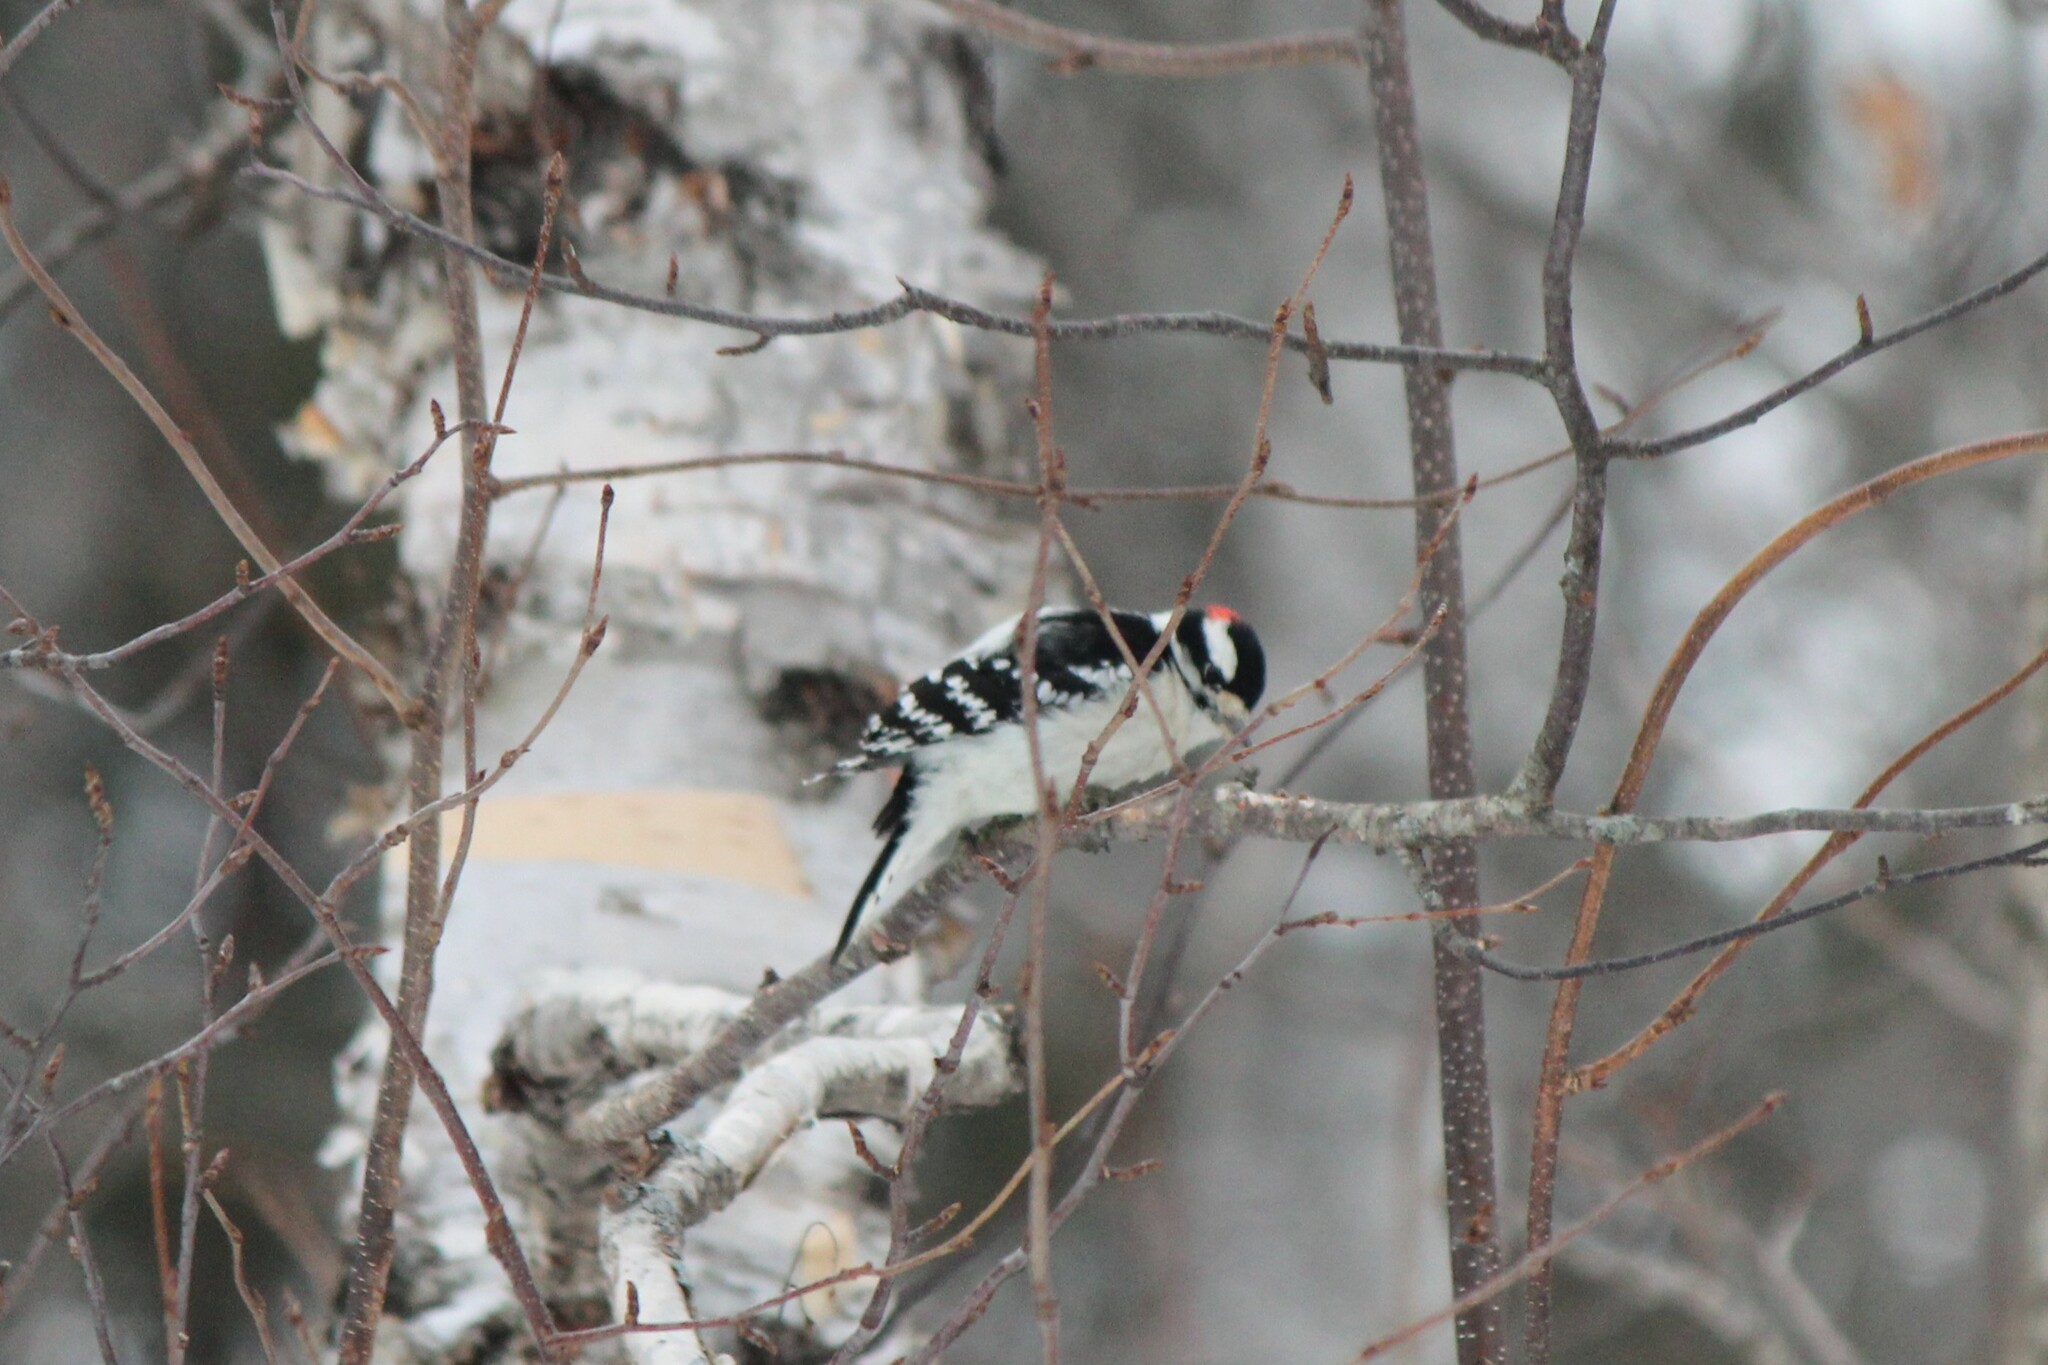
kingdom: Animalia
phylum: Chordata
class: Aves
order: Piciformes
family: Picidae
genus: Dryobates
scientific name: Dryobates pubescens
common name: Downy woodpecker
